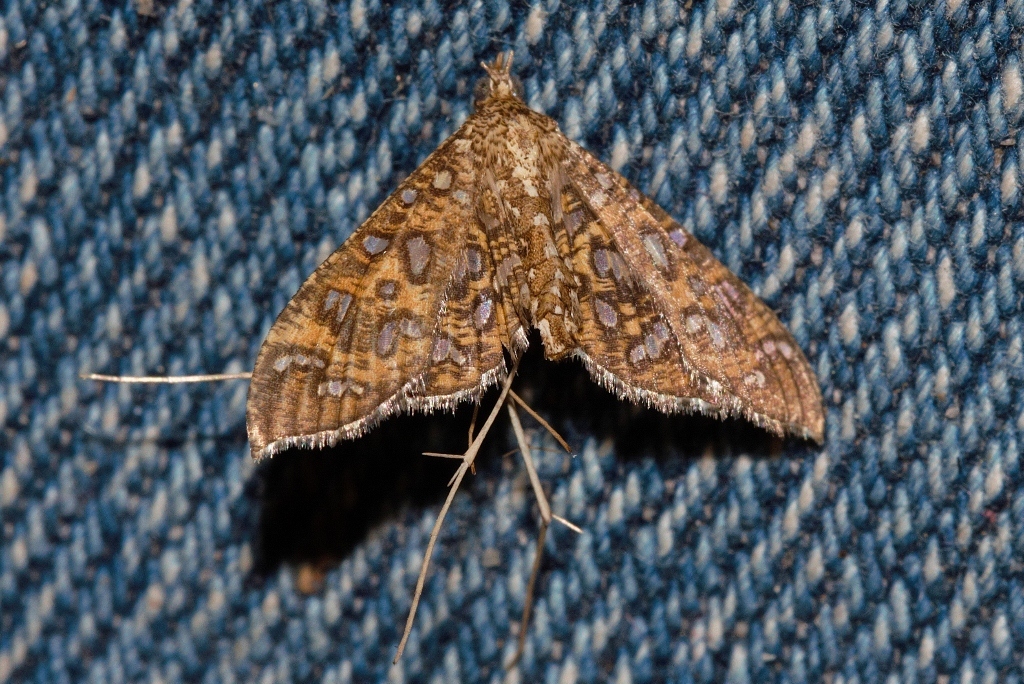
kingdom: Animalia
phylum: Arthropoda
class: Insecta
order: Lepidoptera
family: Crambidae
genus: Nausinoe
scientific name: Nausinoe geometralis
